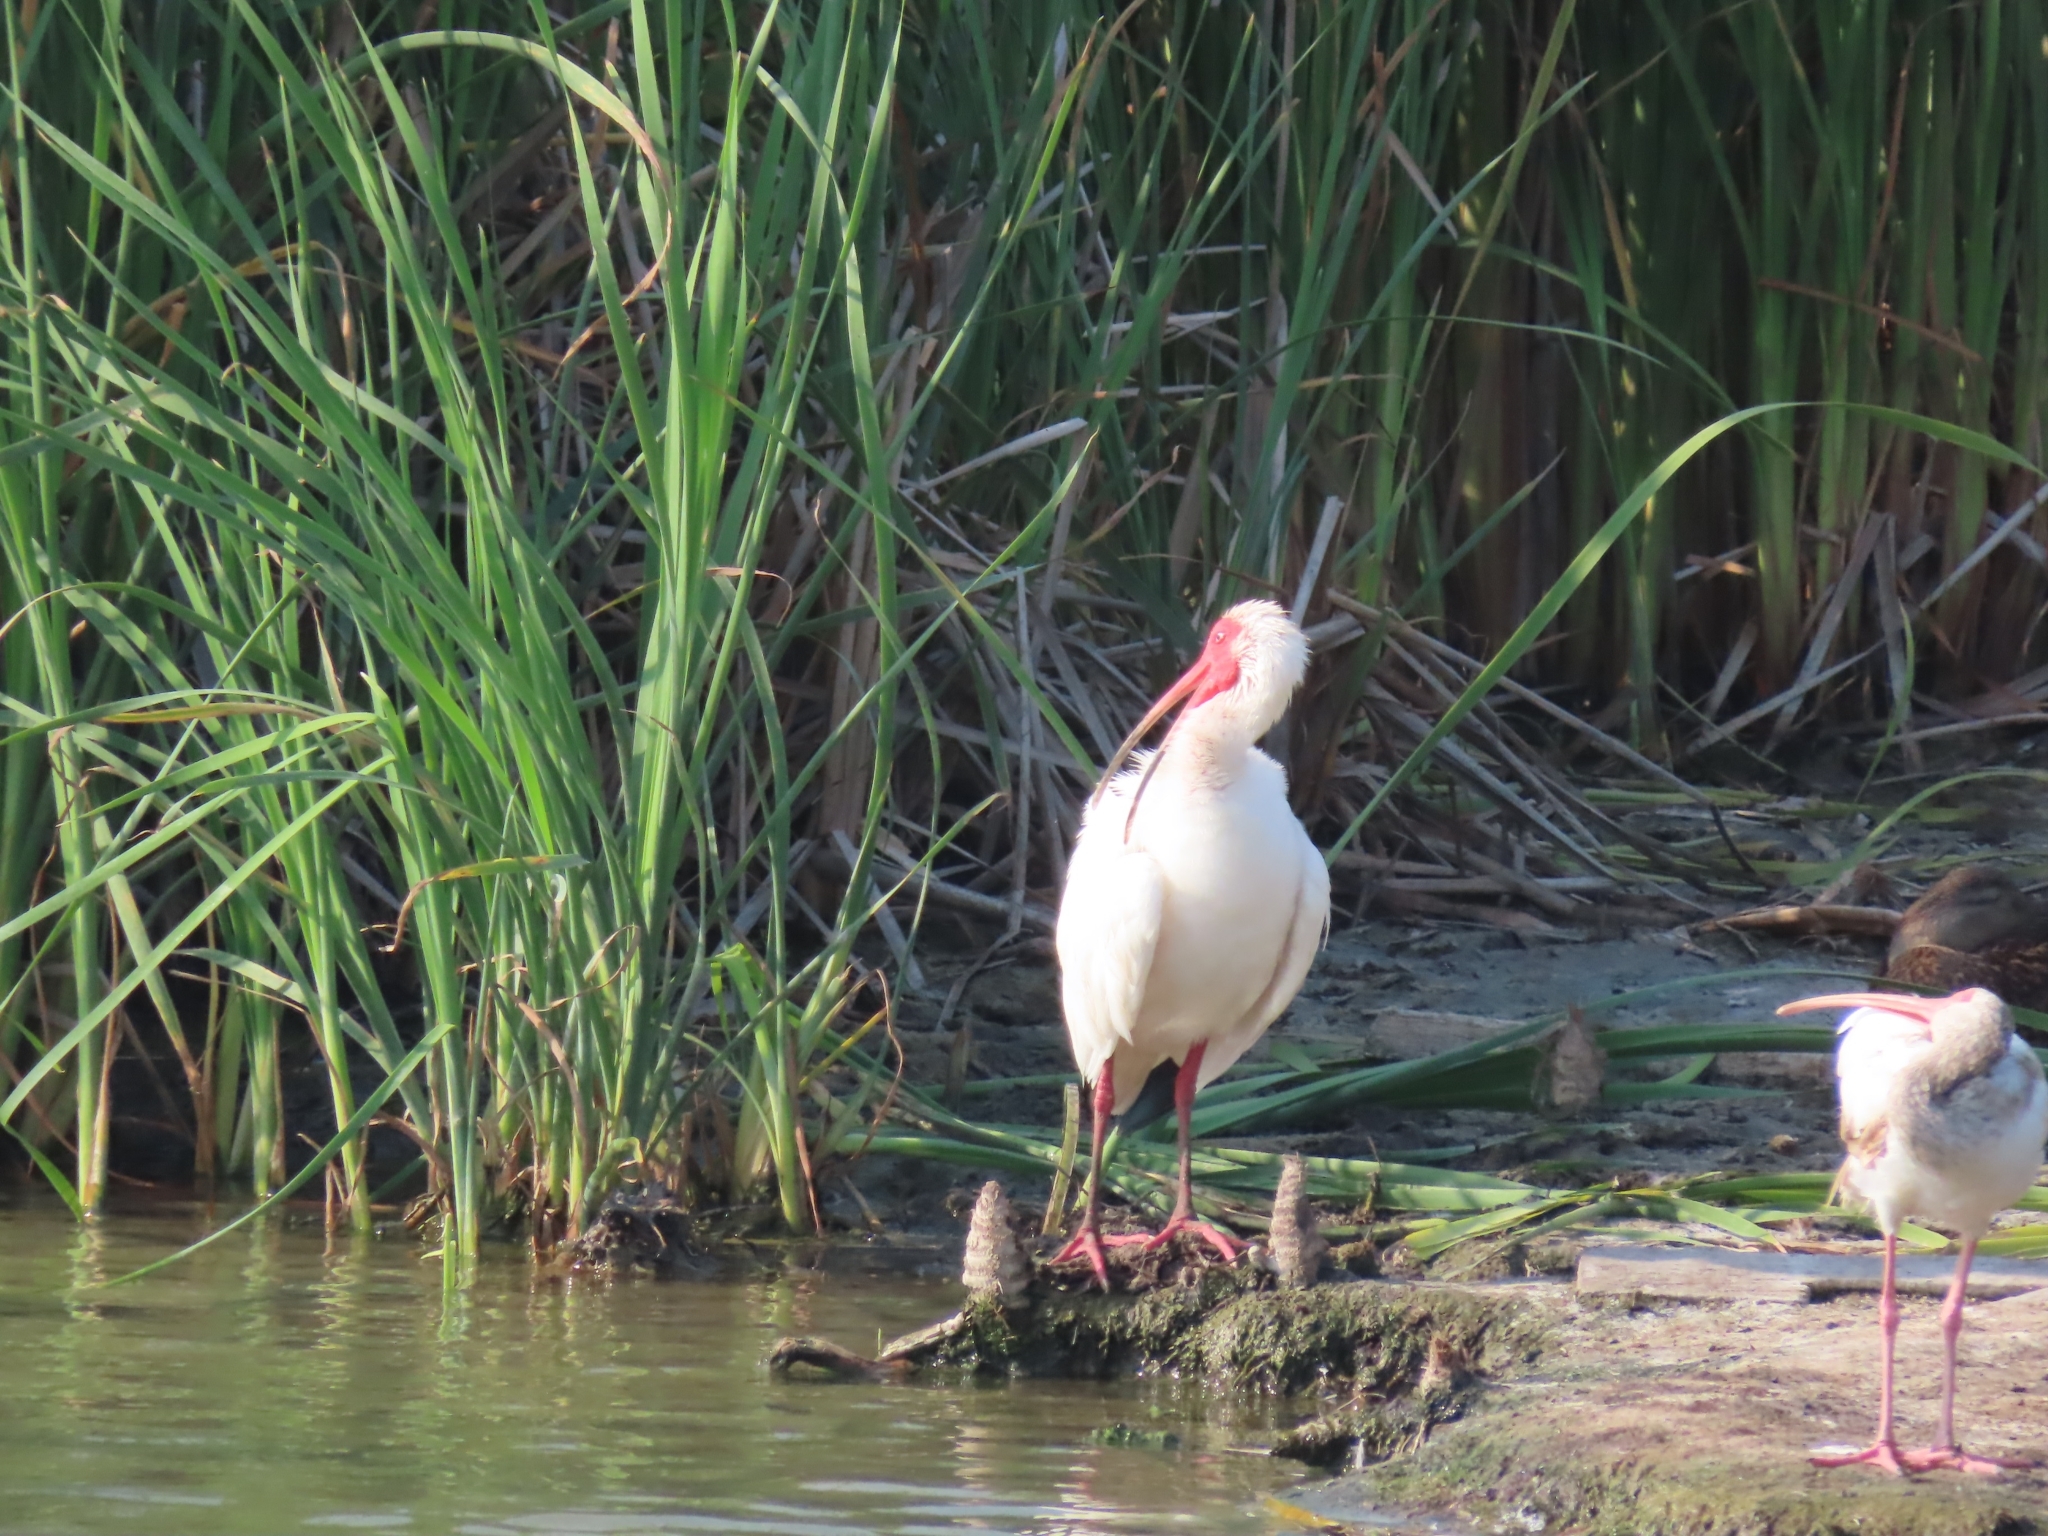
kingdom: Animalia
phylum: Chordata
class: Aves
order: Pelecaniformes
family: Threskiornithidae
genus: Eudocimus
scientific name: Eudocimus albus
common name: White ibis
